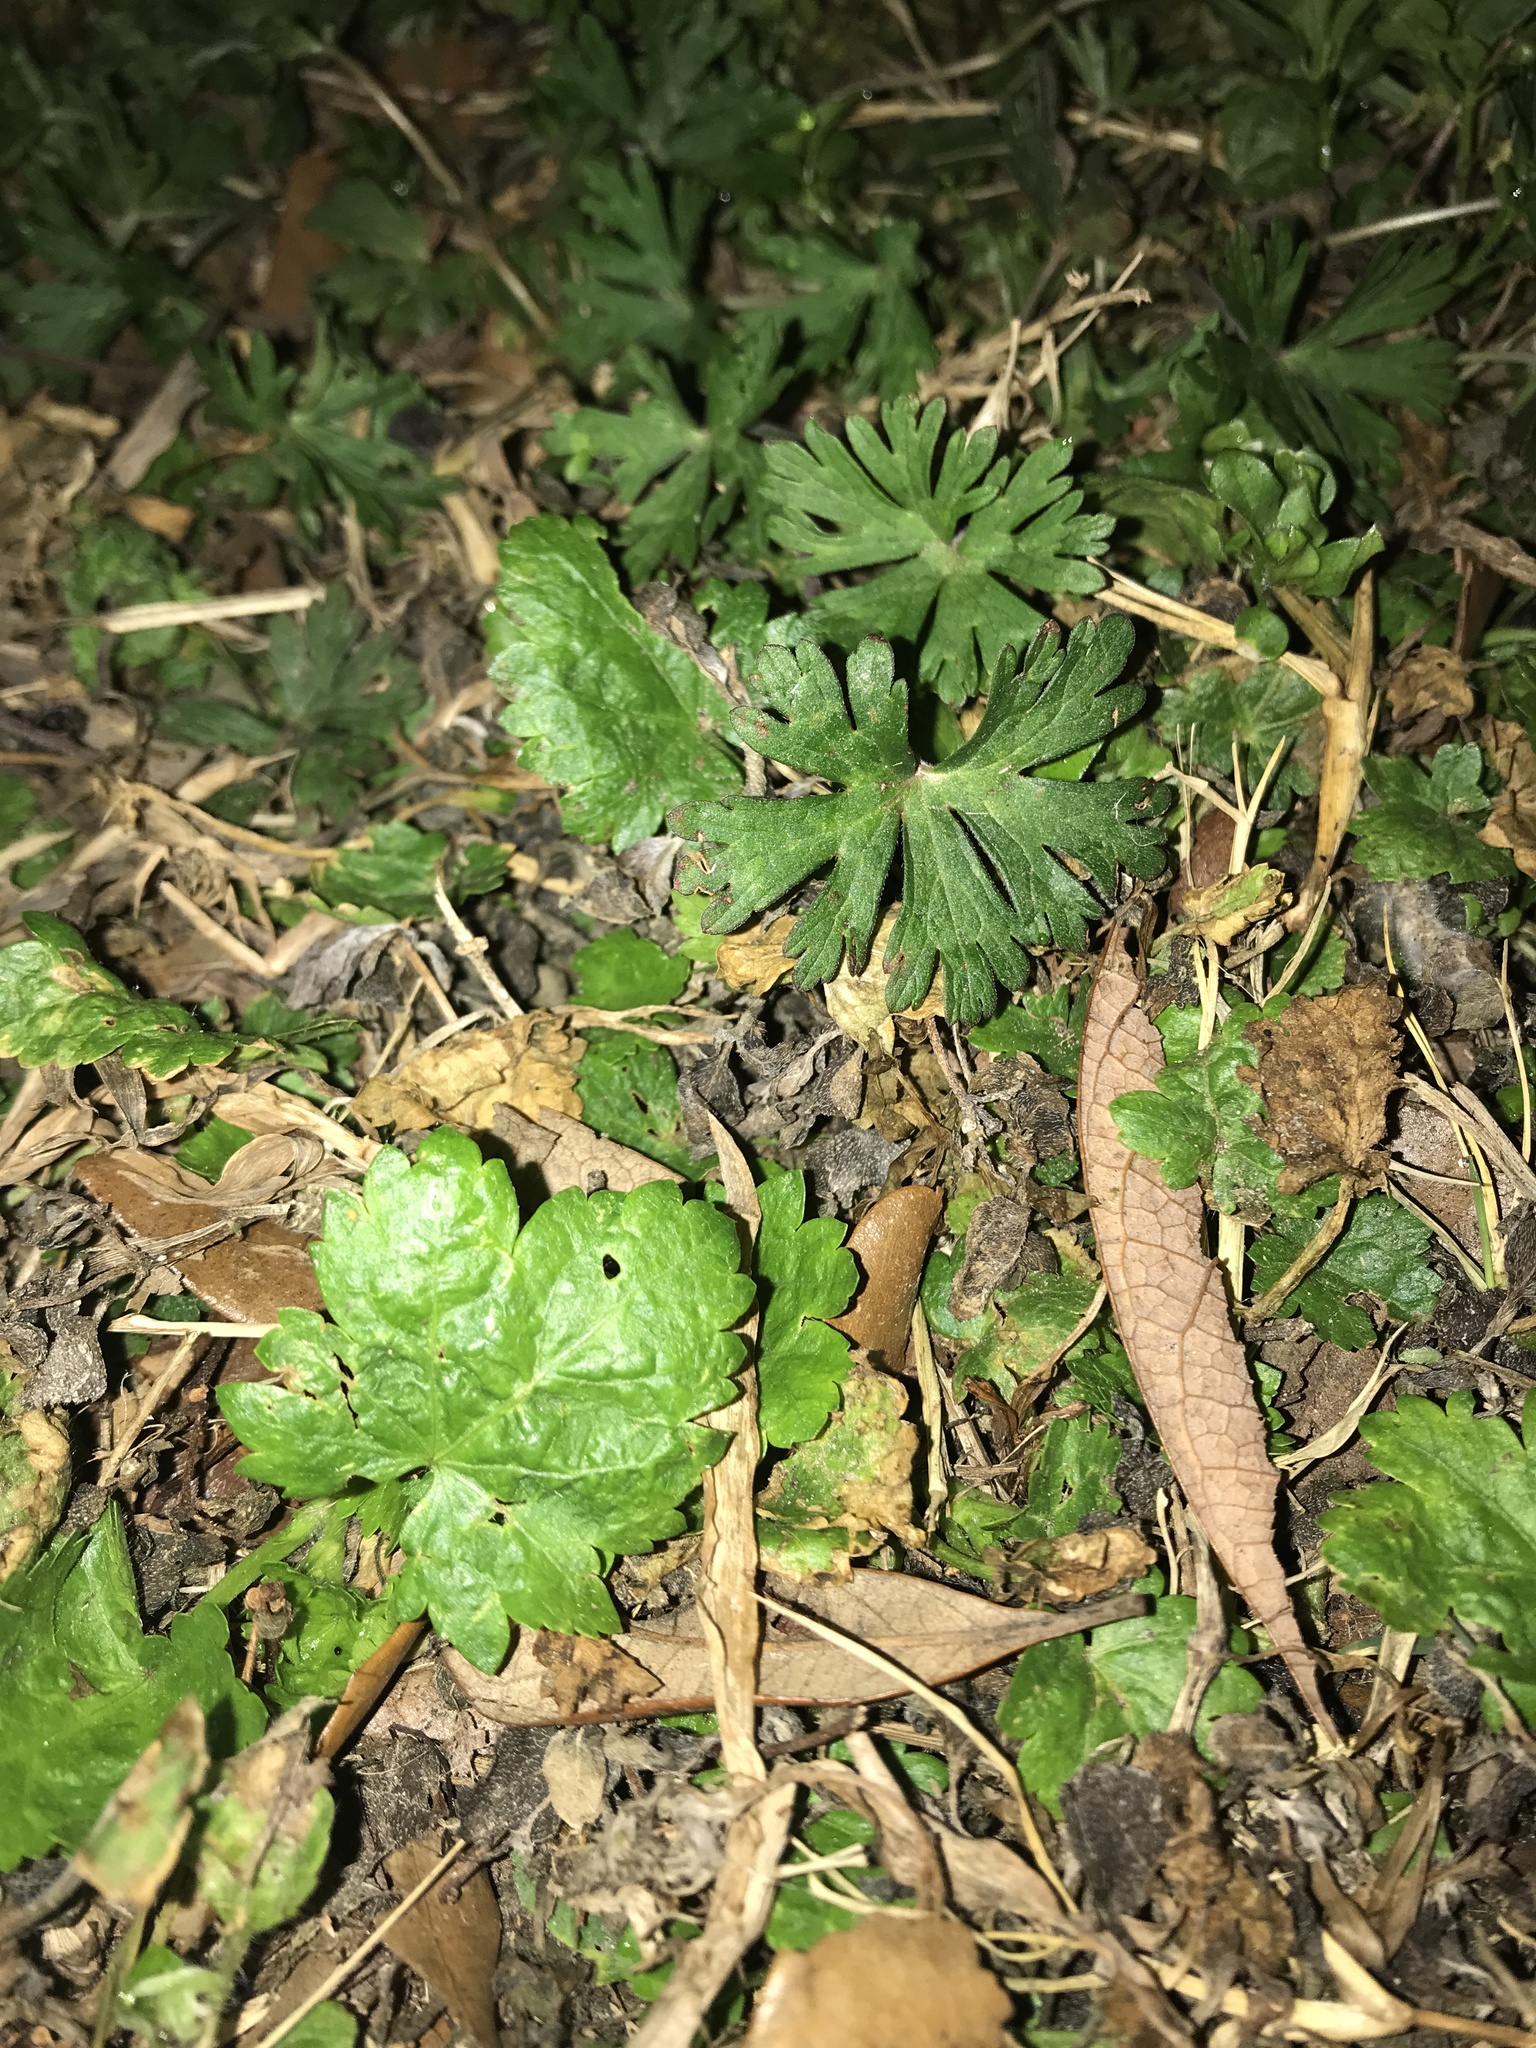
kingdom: Plantae
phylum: Tracheophyta
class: Magnoliopsida
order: Geraniales
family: Geraniaceae
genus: Geranium
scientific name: Geranium carolinianum
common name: Carolina crane's-bill
